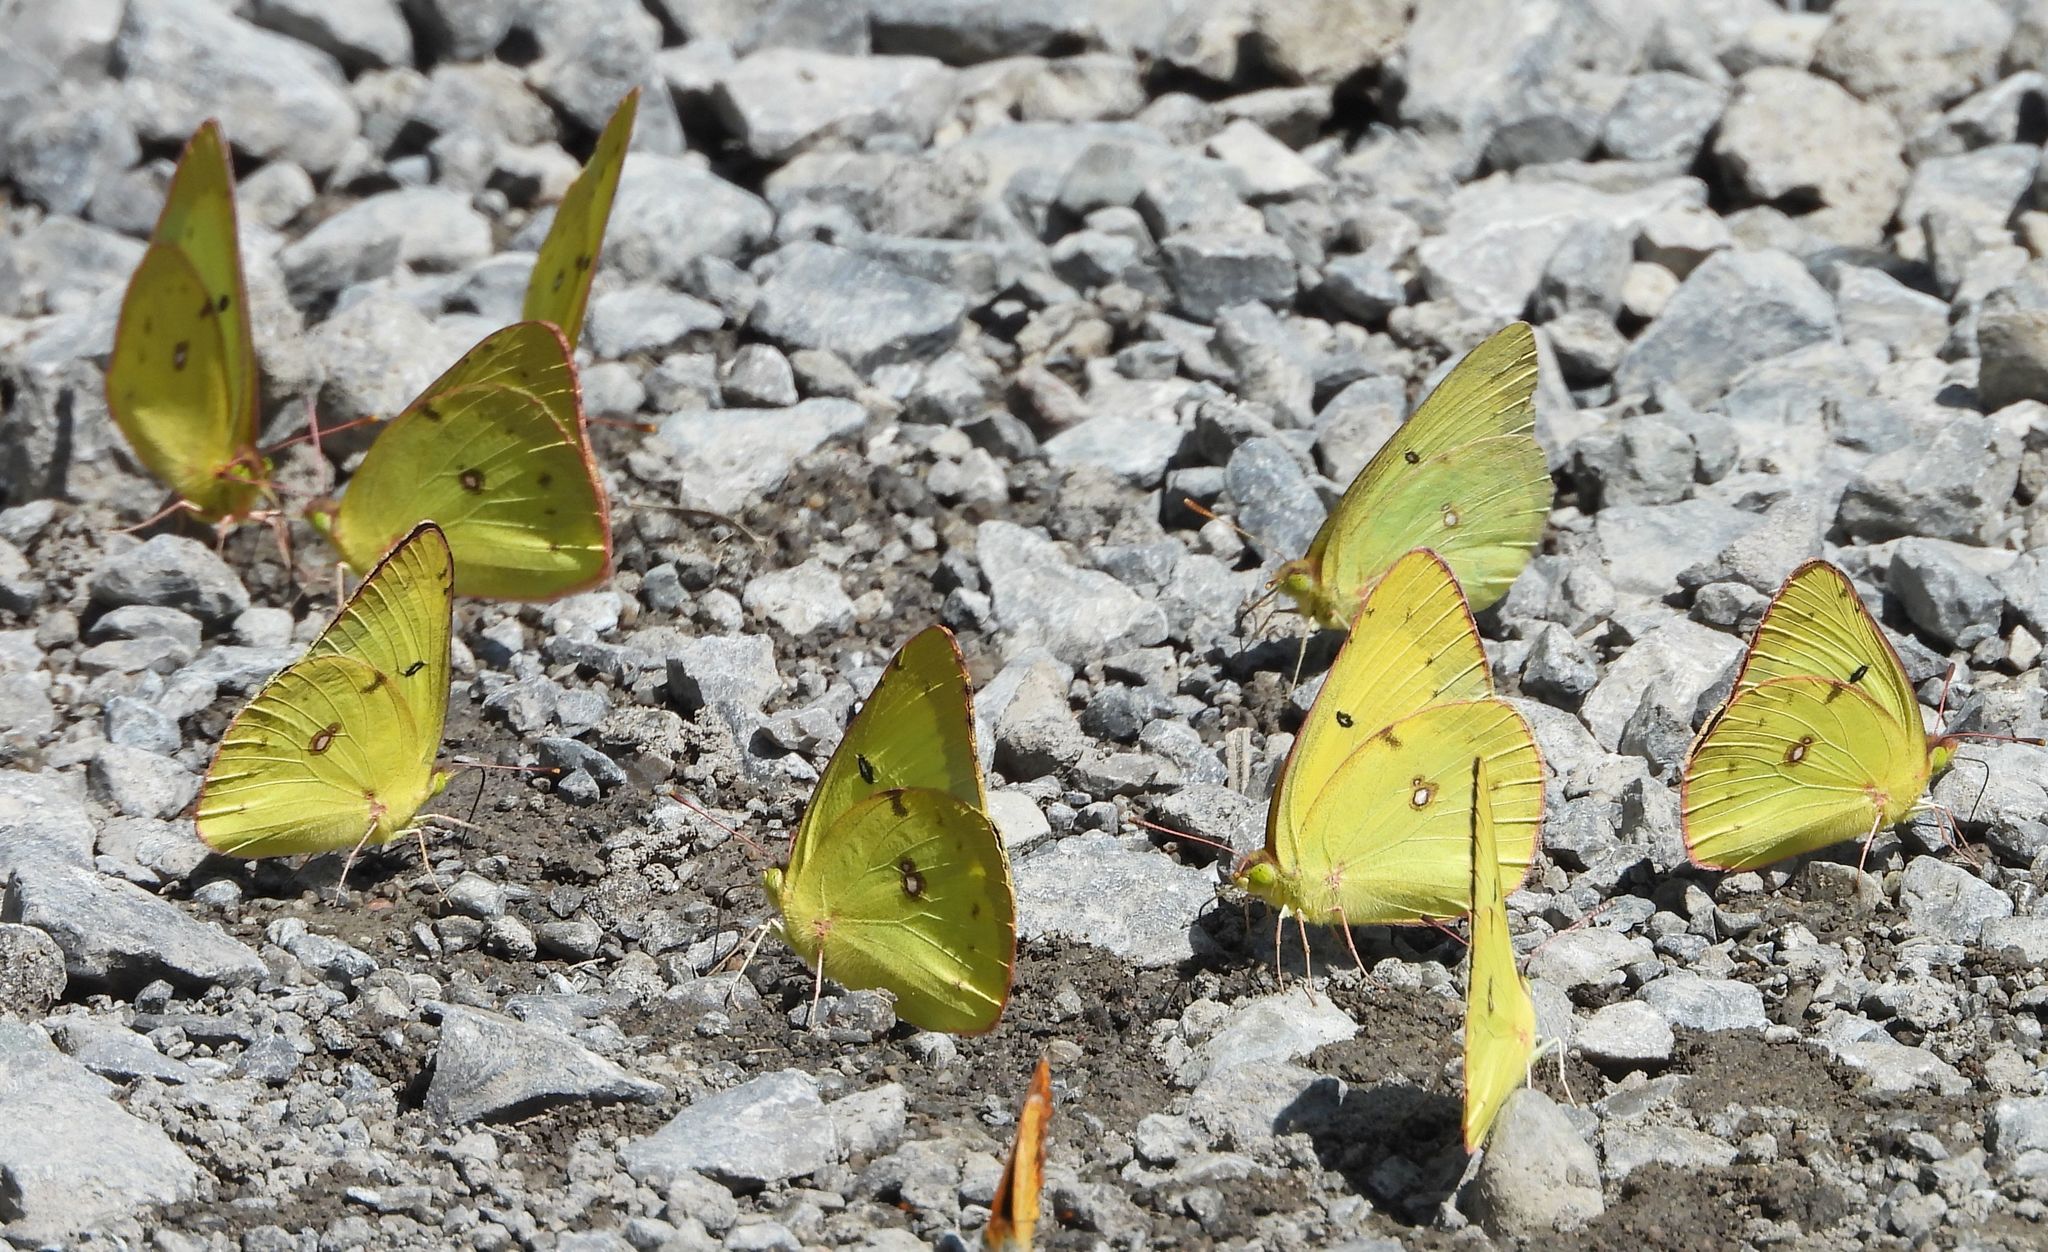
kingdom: Animalia
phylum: Arthropoda
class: Insecta
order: Lepidoptera
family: Pieridae
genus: Colias
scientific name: Colias philodice
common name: Clouded sulphur
